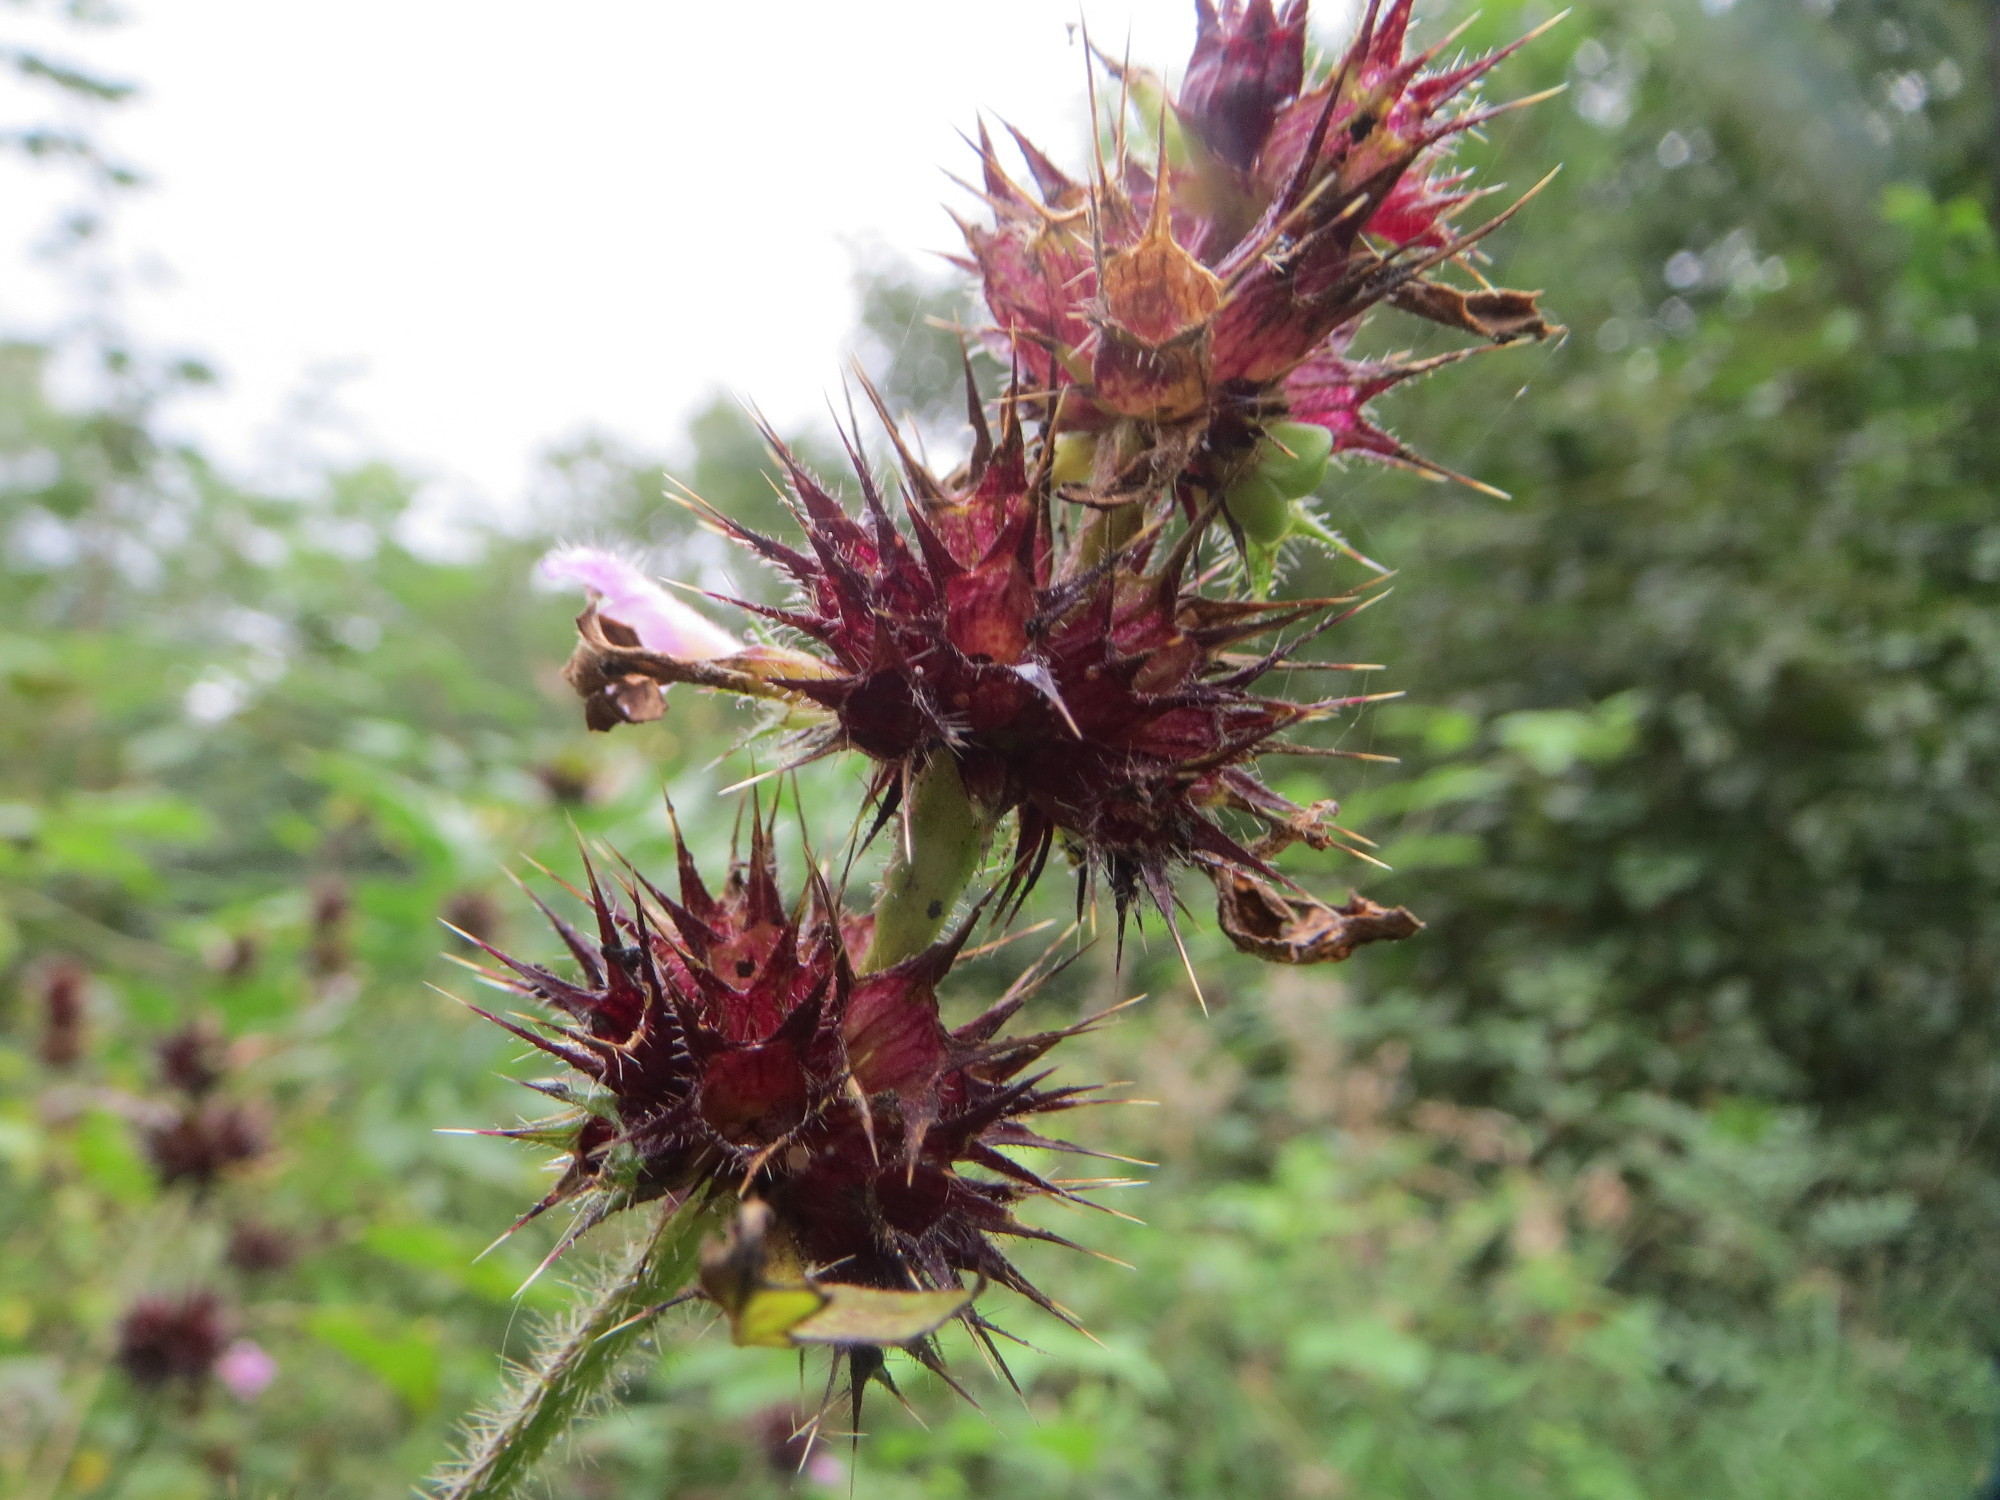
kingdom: Plantae
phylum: Tracheophyta
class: Magnoliopsida
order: Lamiales
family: Lamiaceae
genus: Galeopsis
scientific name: Galeopsis tetrahit
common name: Common hemp-nettle
